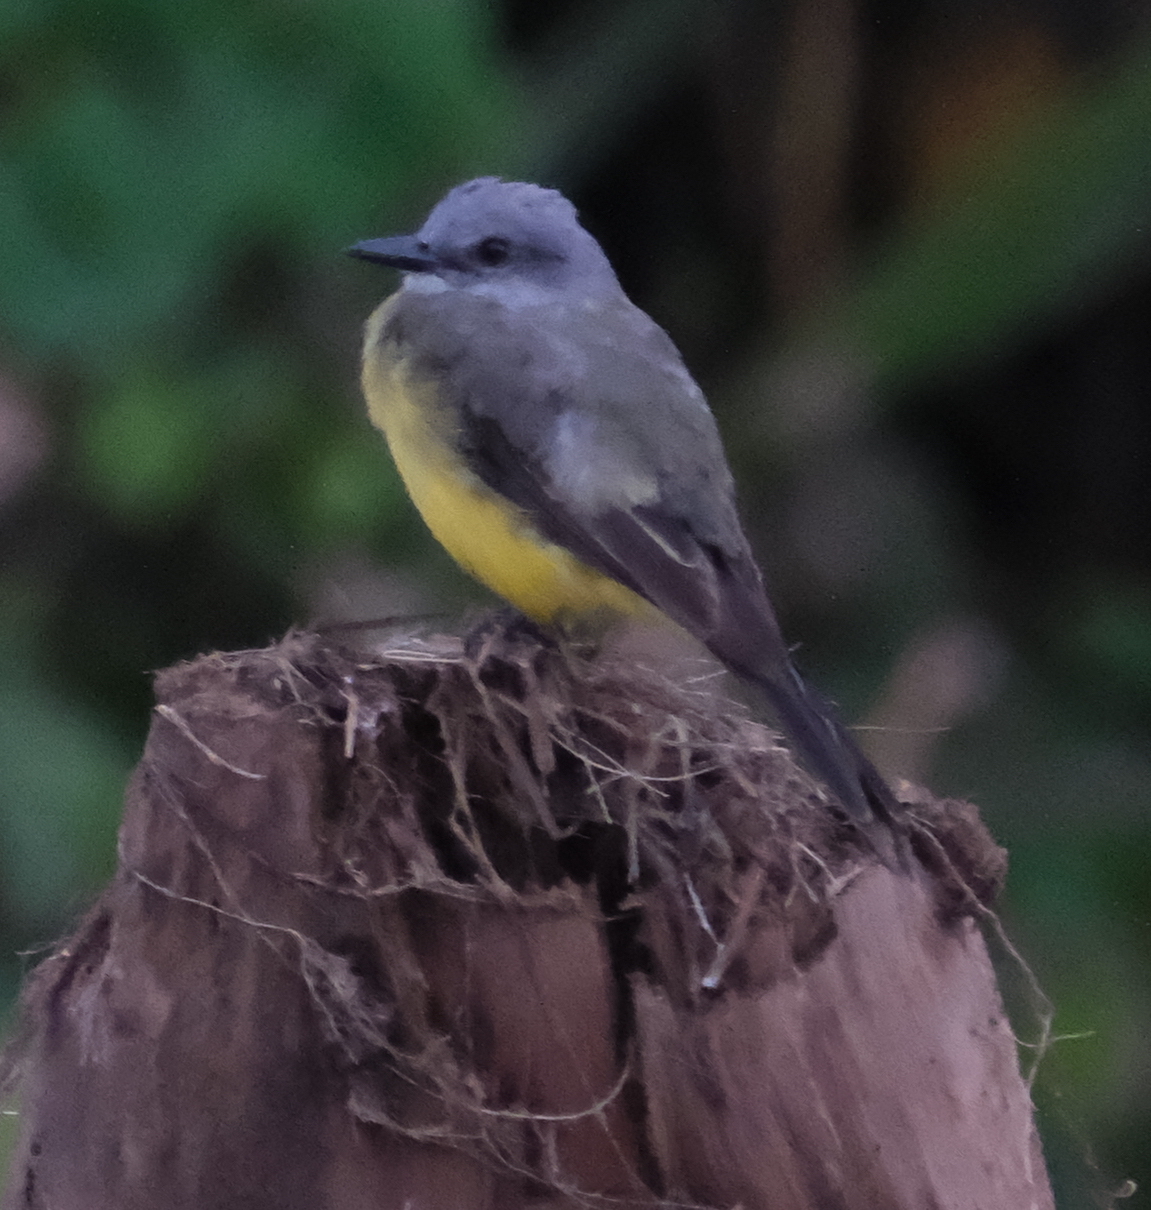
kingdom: Animalia
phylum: Chordata
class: Aves
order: Passeriformes
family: Tyrannidae
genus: Tyrannus
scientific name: Tyrannus melancholicus
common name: Tropical kingbird
